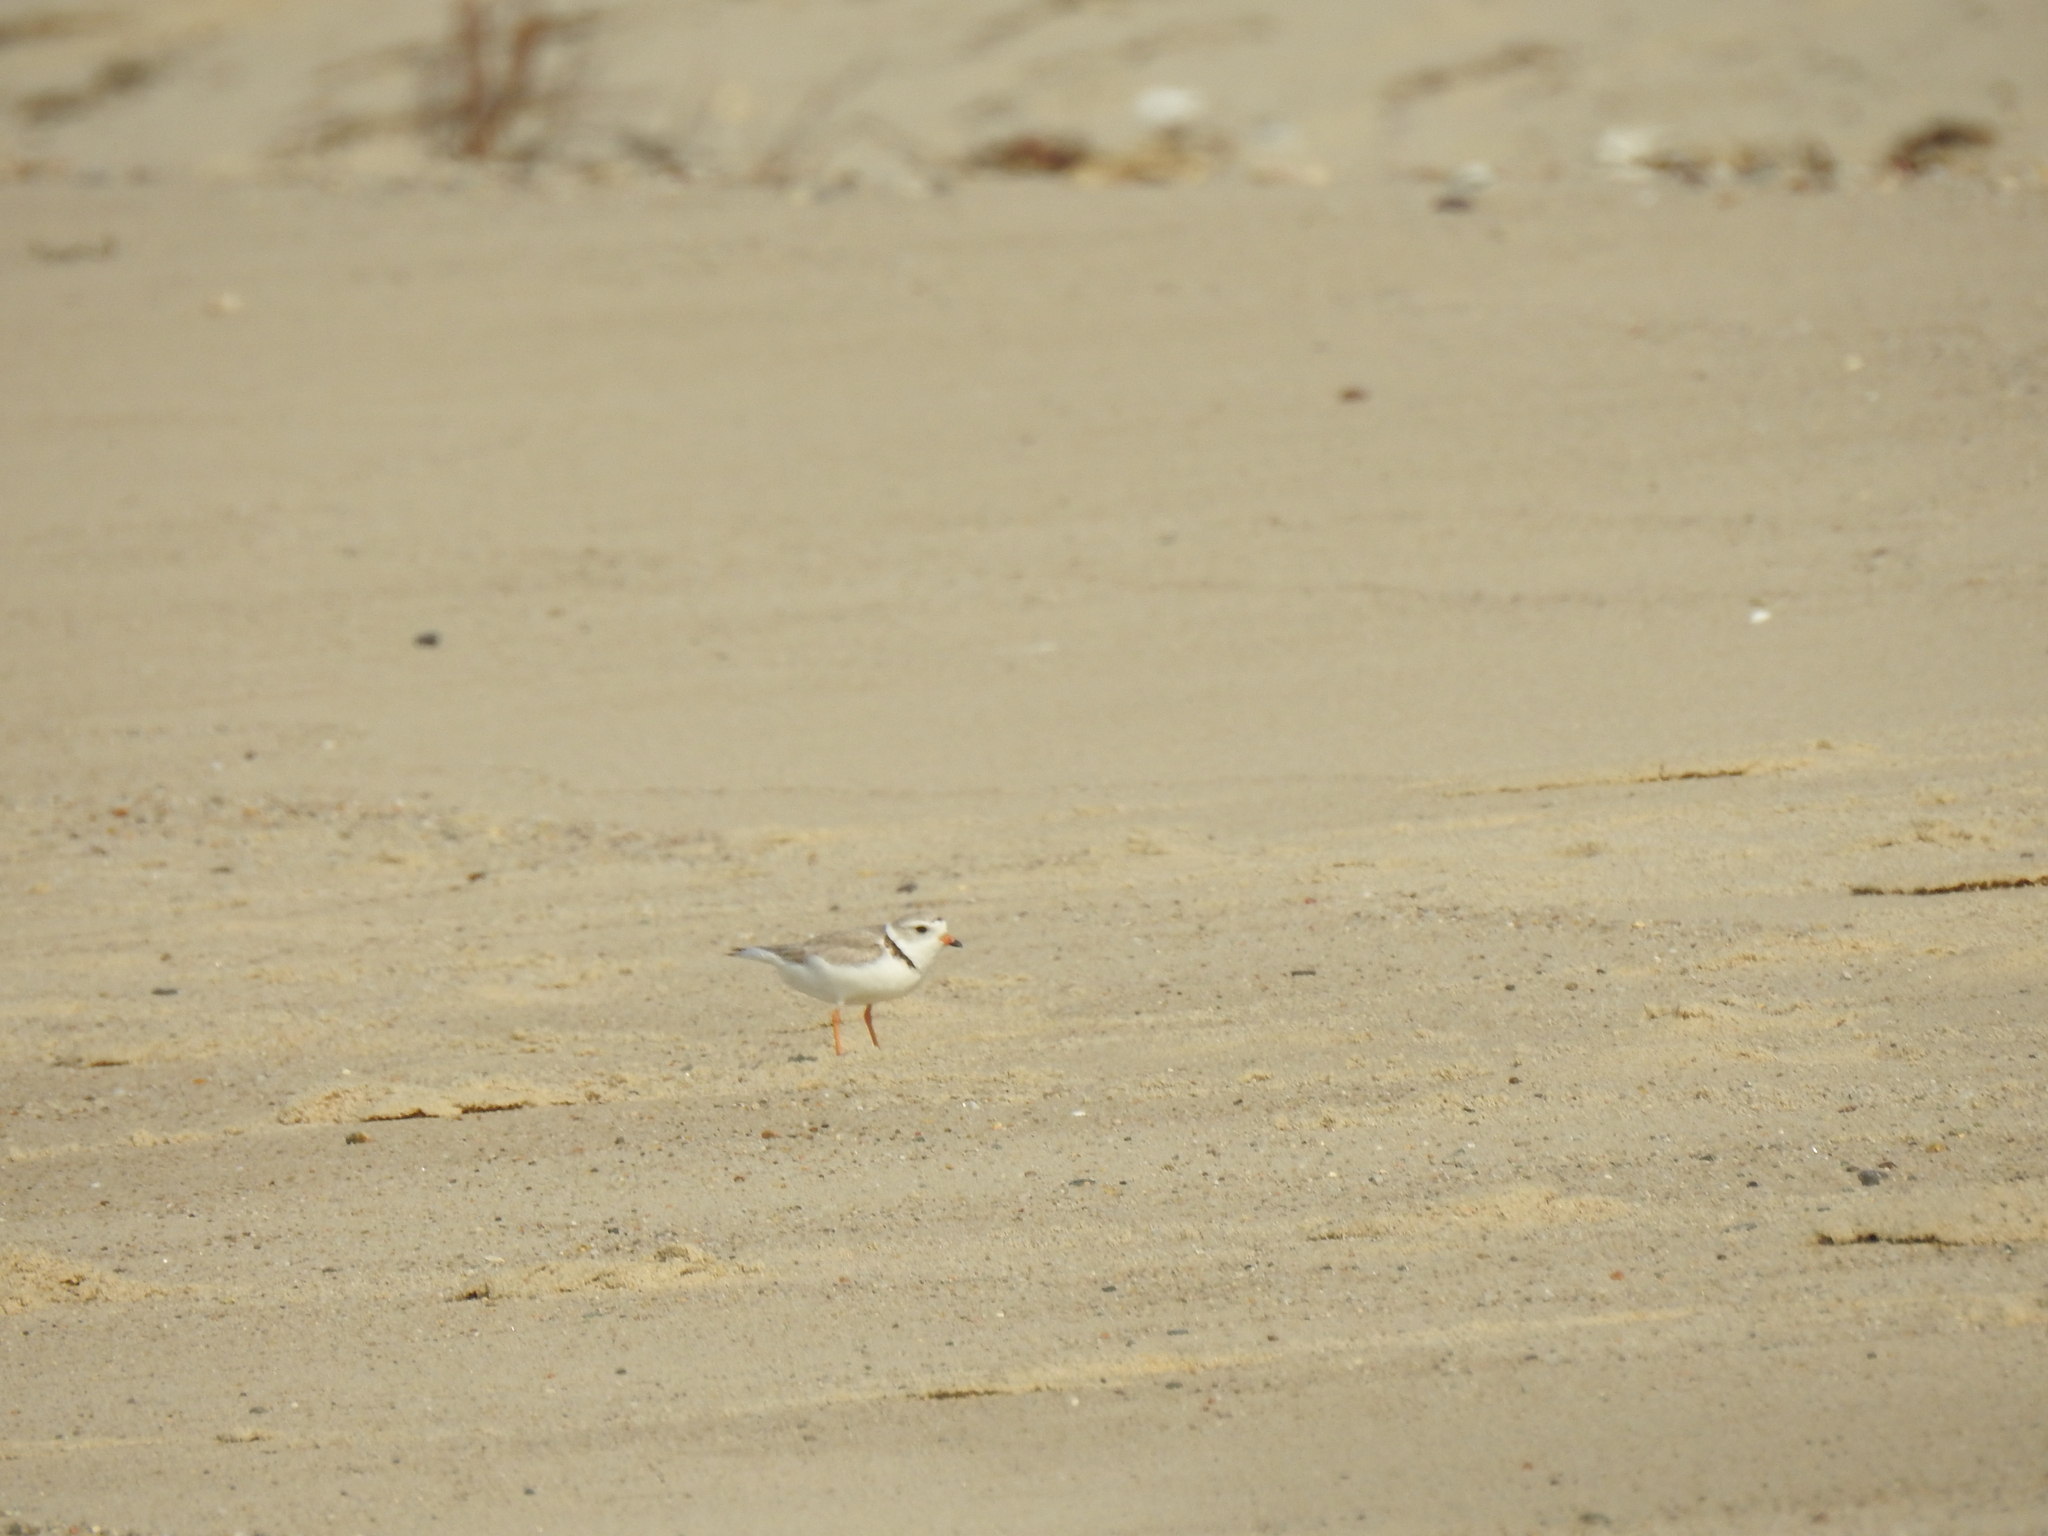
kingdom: Animalia
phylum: Chordata
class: Aves
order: Charadriiformes
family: Charadriidae
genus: Charadrius
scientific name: Charadrius melodus
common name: Piping plover
